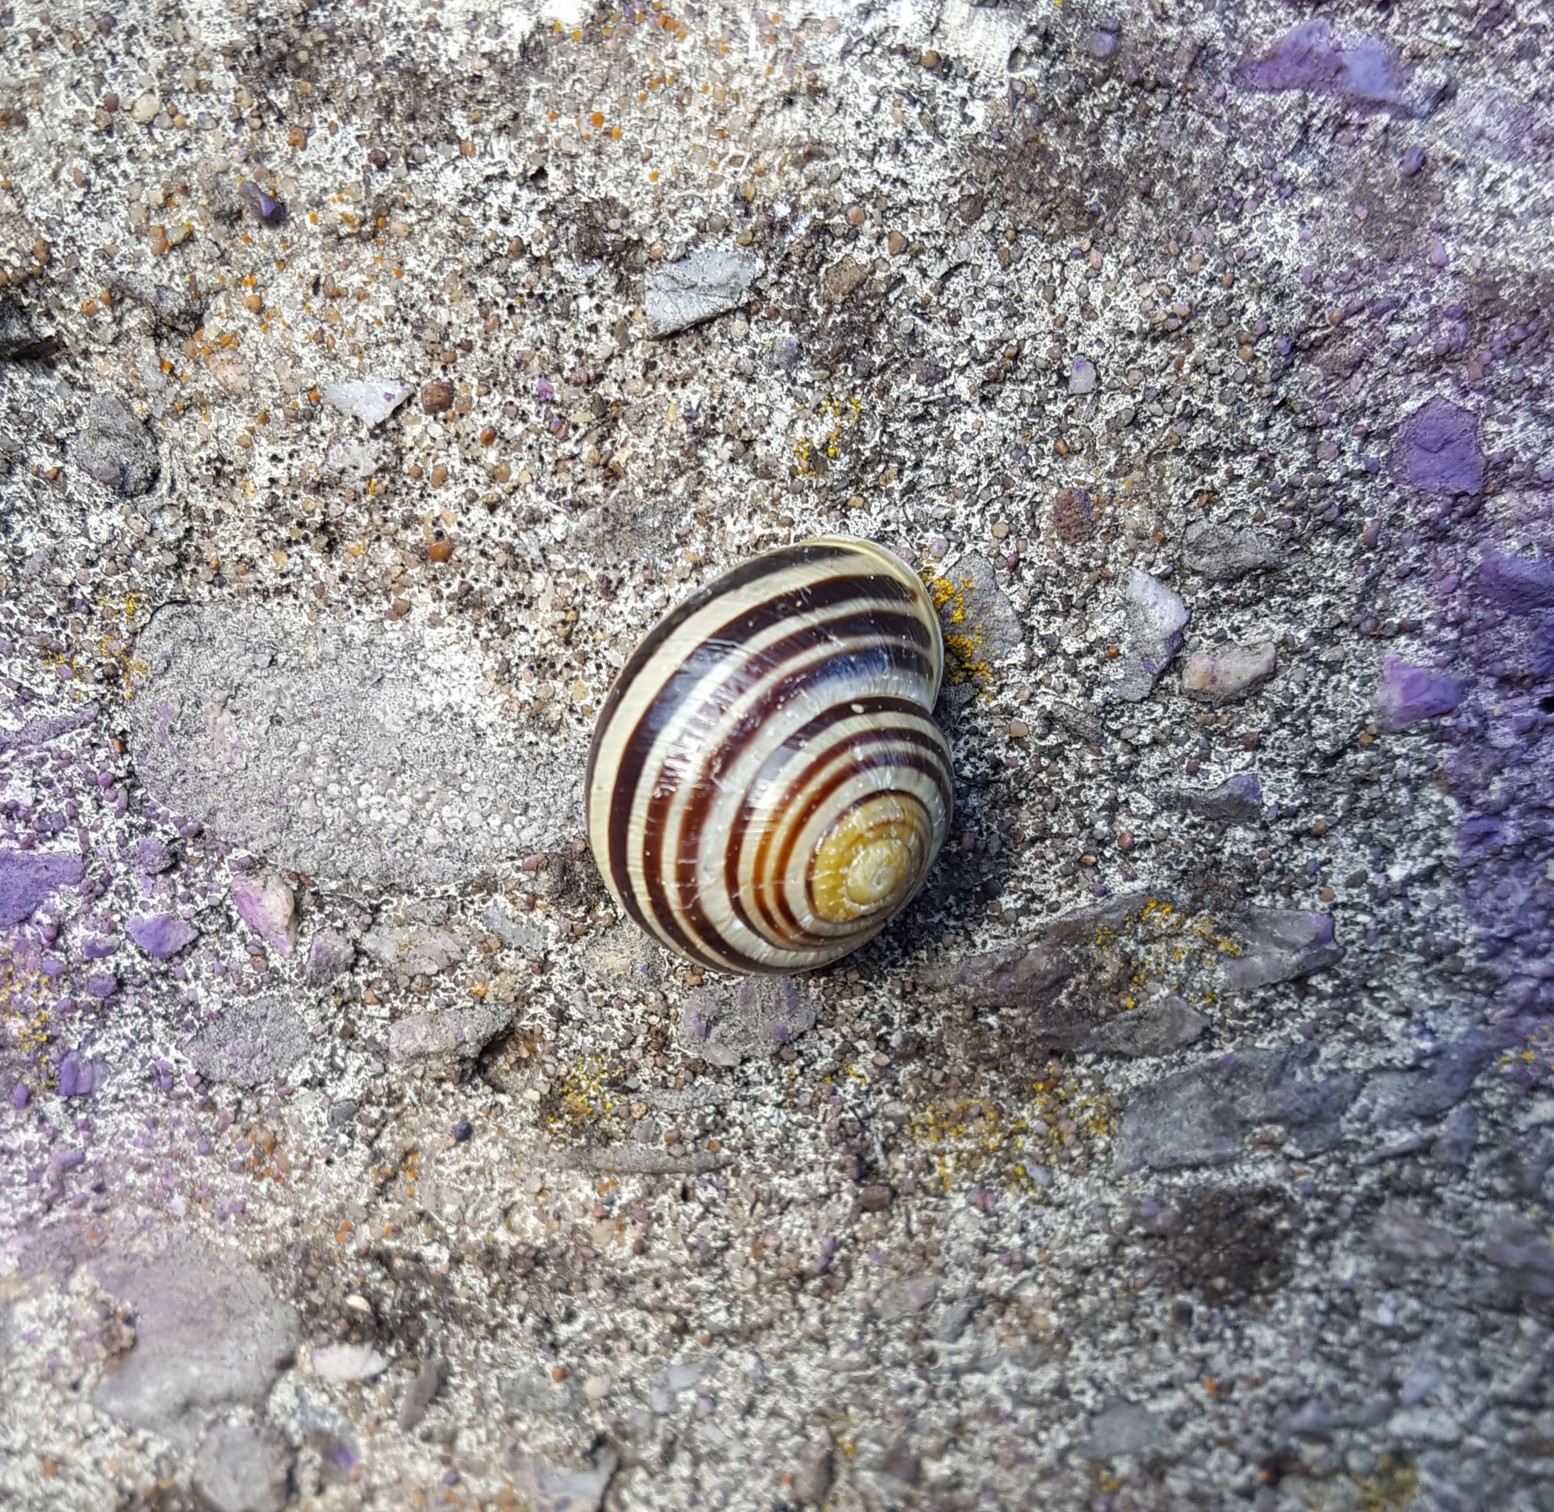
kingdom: Animalia
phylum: Mollusca
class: Gastropoda
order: Stylommatophora
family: Helicidae
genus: Cepaea
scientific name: Cepaea hortensis
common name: White-lip gardensnail
